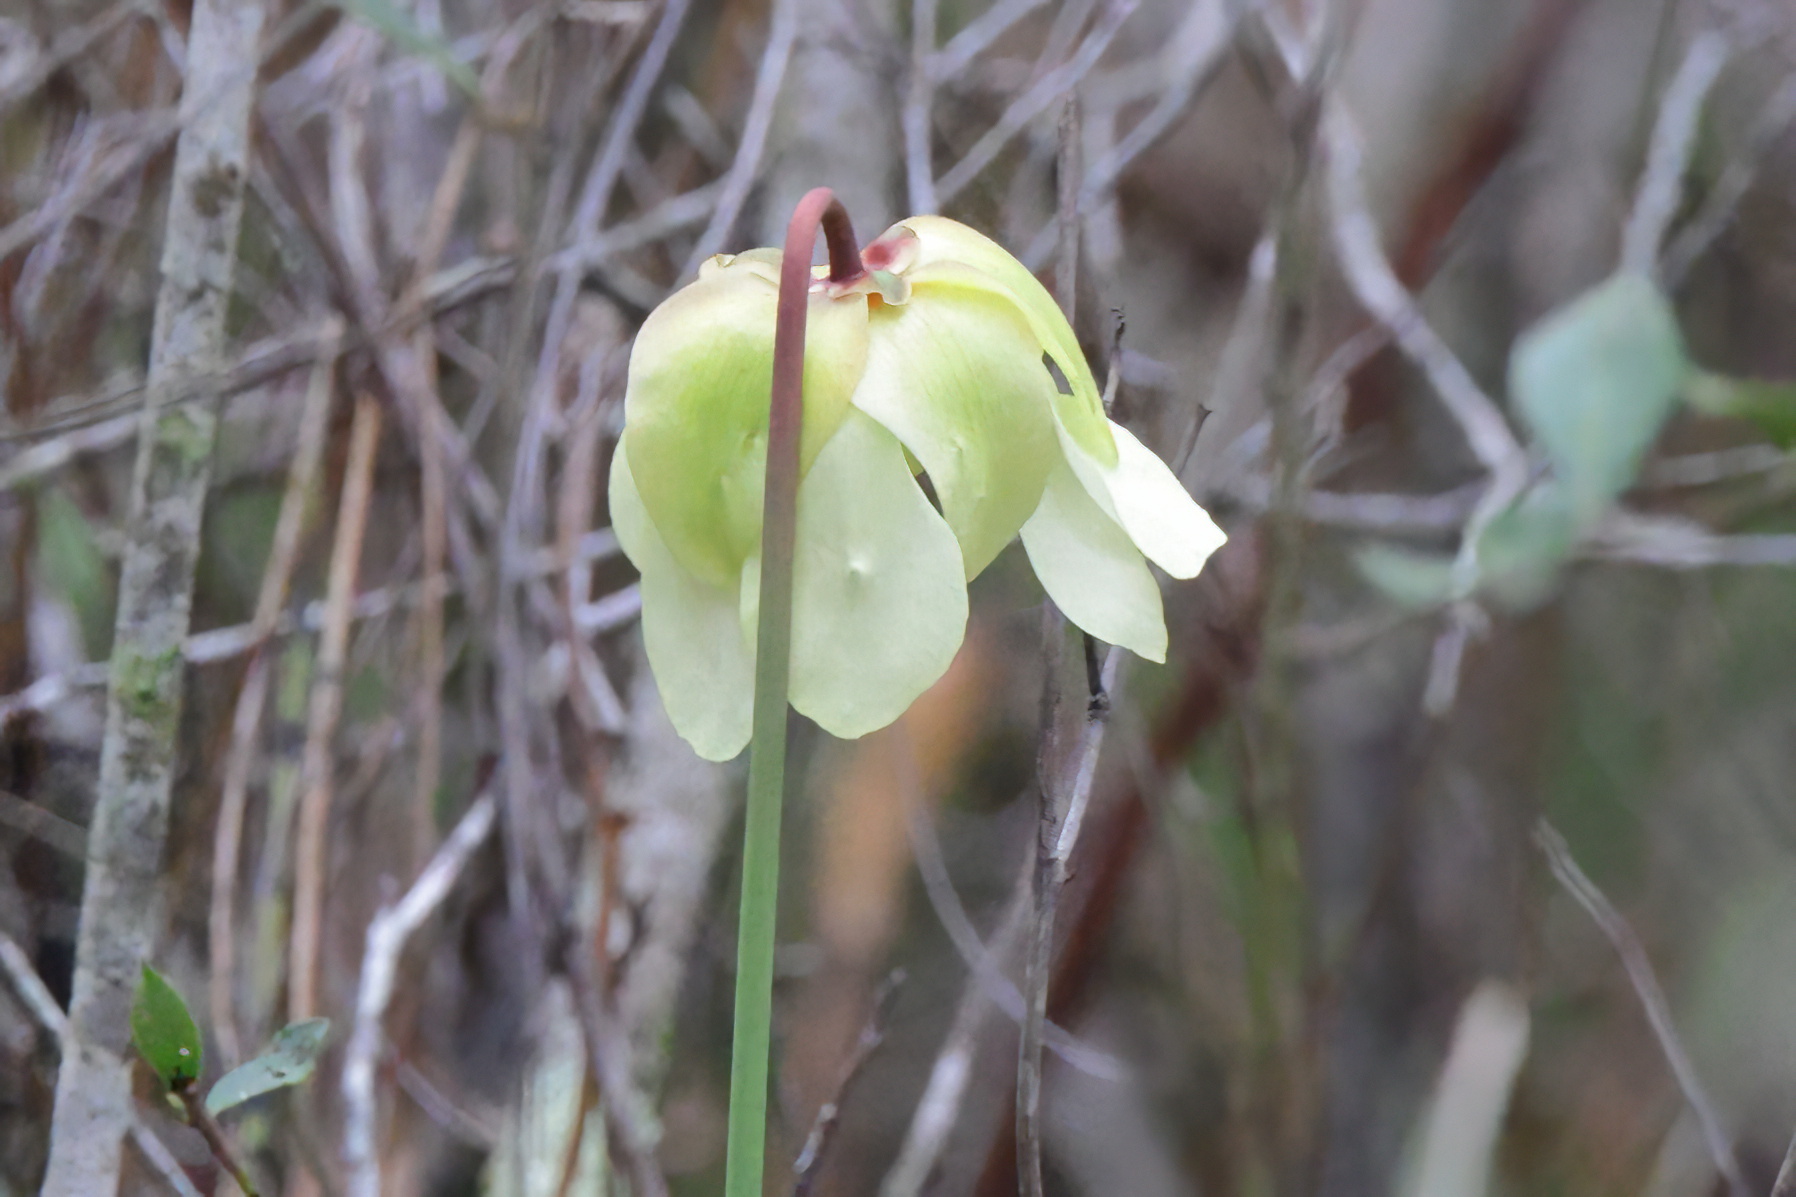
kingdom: Plantae
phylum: Tracheophyta
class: Magnoliopsida
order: Ericales
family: Sarraceniaceae
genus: Sarracenia
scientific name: Sarracenia alata
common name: Yellow trumpets
